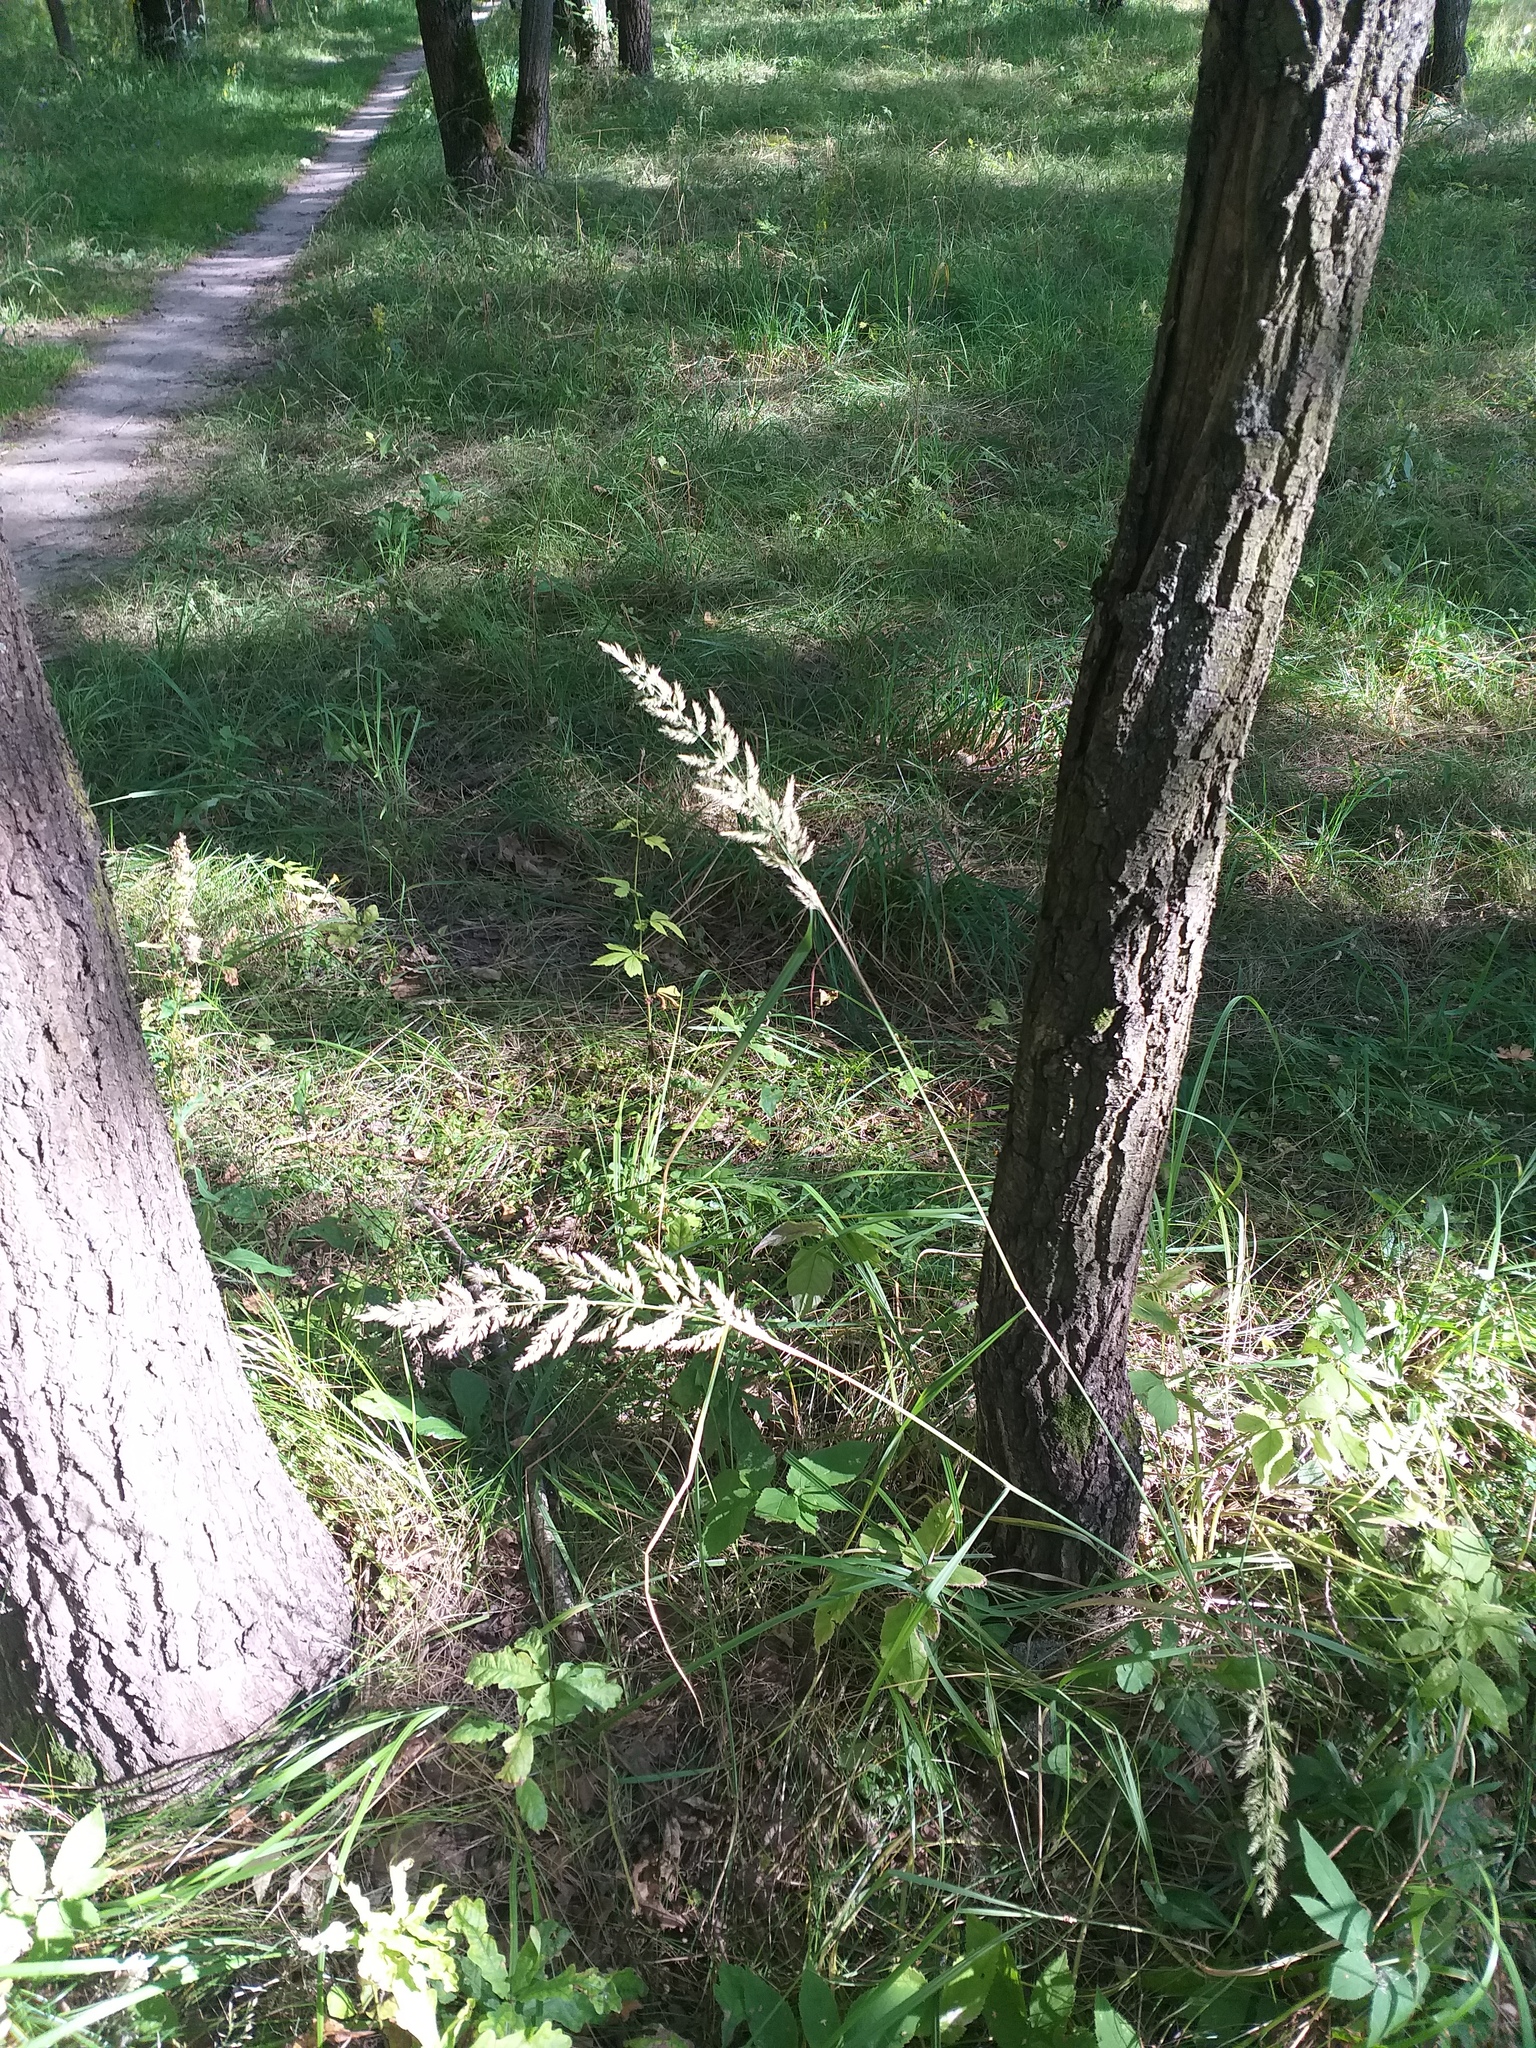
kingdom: Plantae
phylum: Tracheophyta
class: Liliopsida
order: Poales
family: Poaceae
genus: Calamagrostis
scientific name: Calamagrostis epigejos
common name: Wood small-reed
